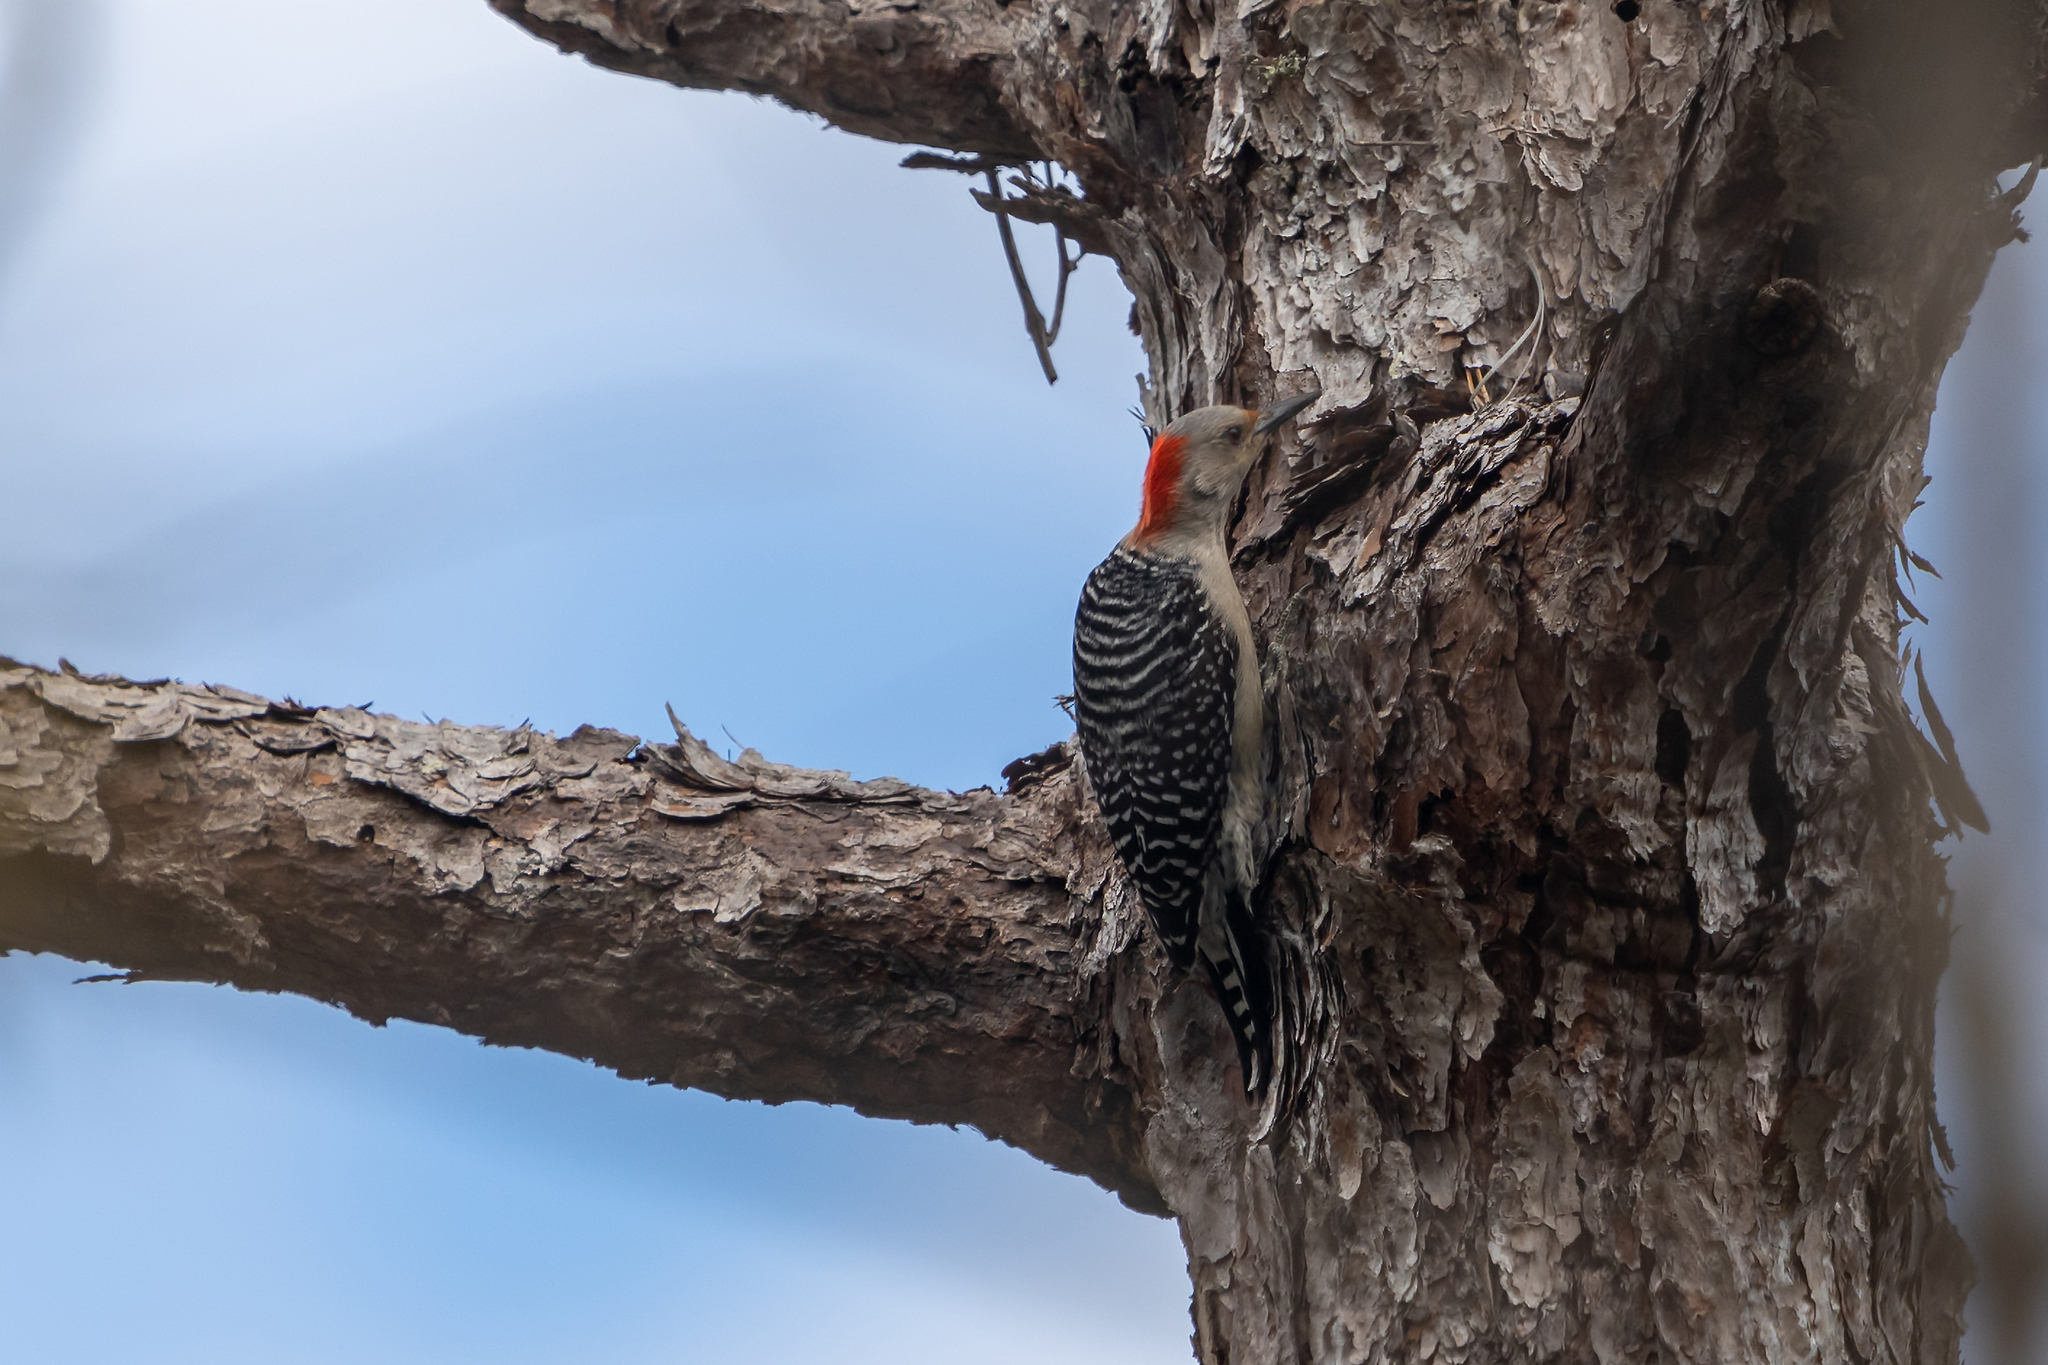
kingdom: Animalia
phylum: Chordata
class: Aves
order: Piciformes
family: Picidae
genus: Melanerpes
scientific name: Melanerpes carolinus
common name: Red-bellied woodpecker
